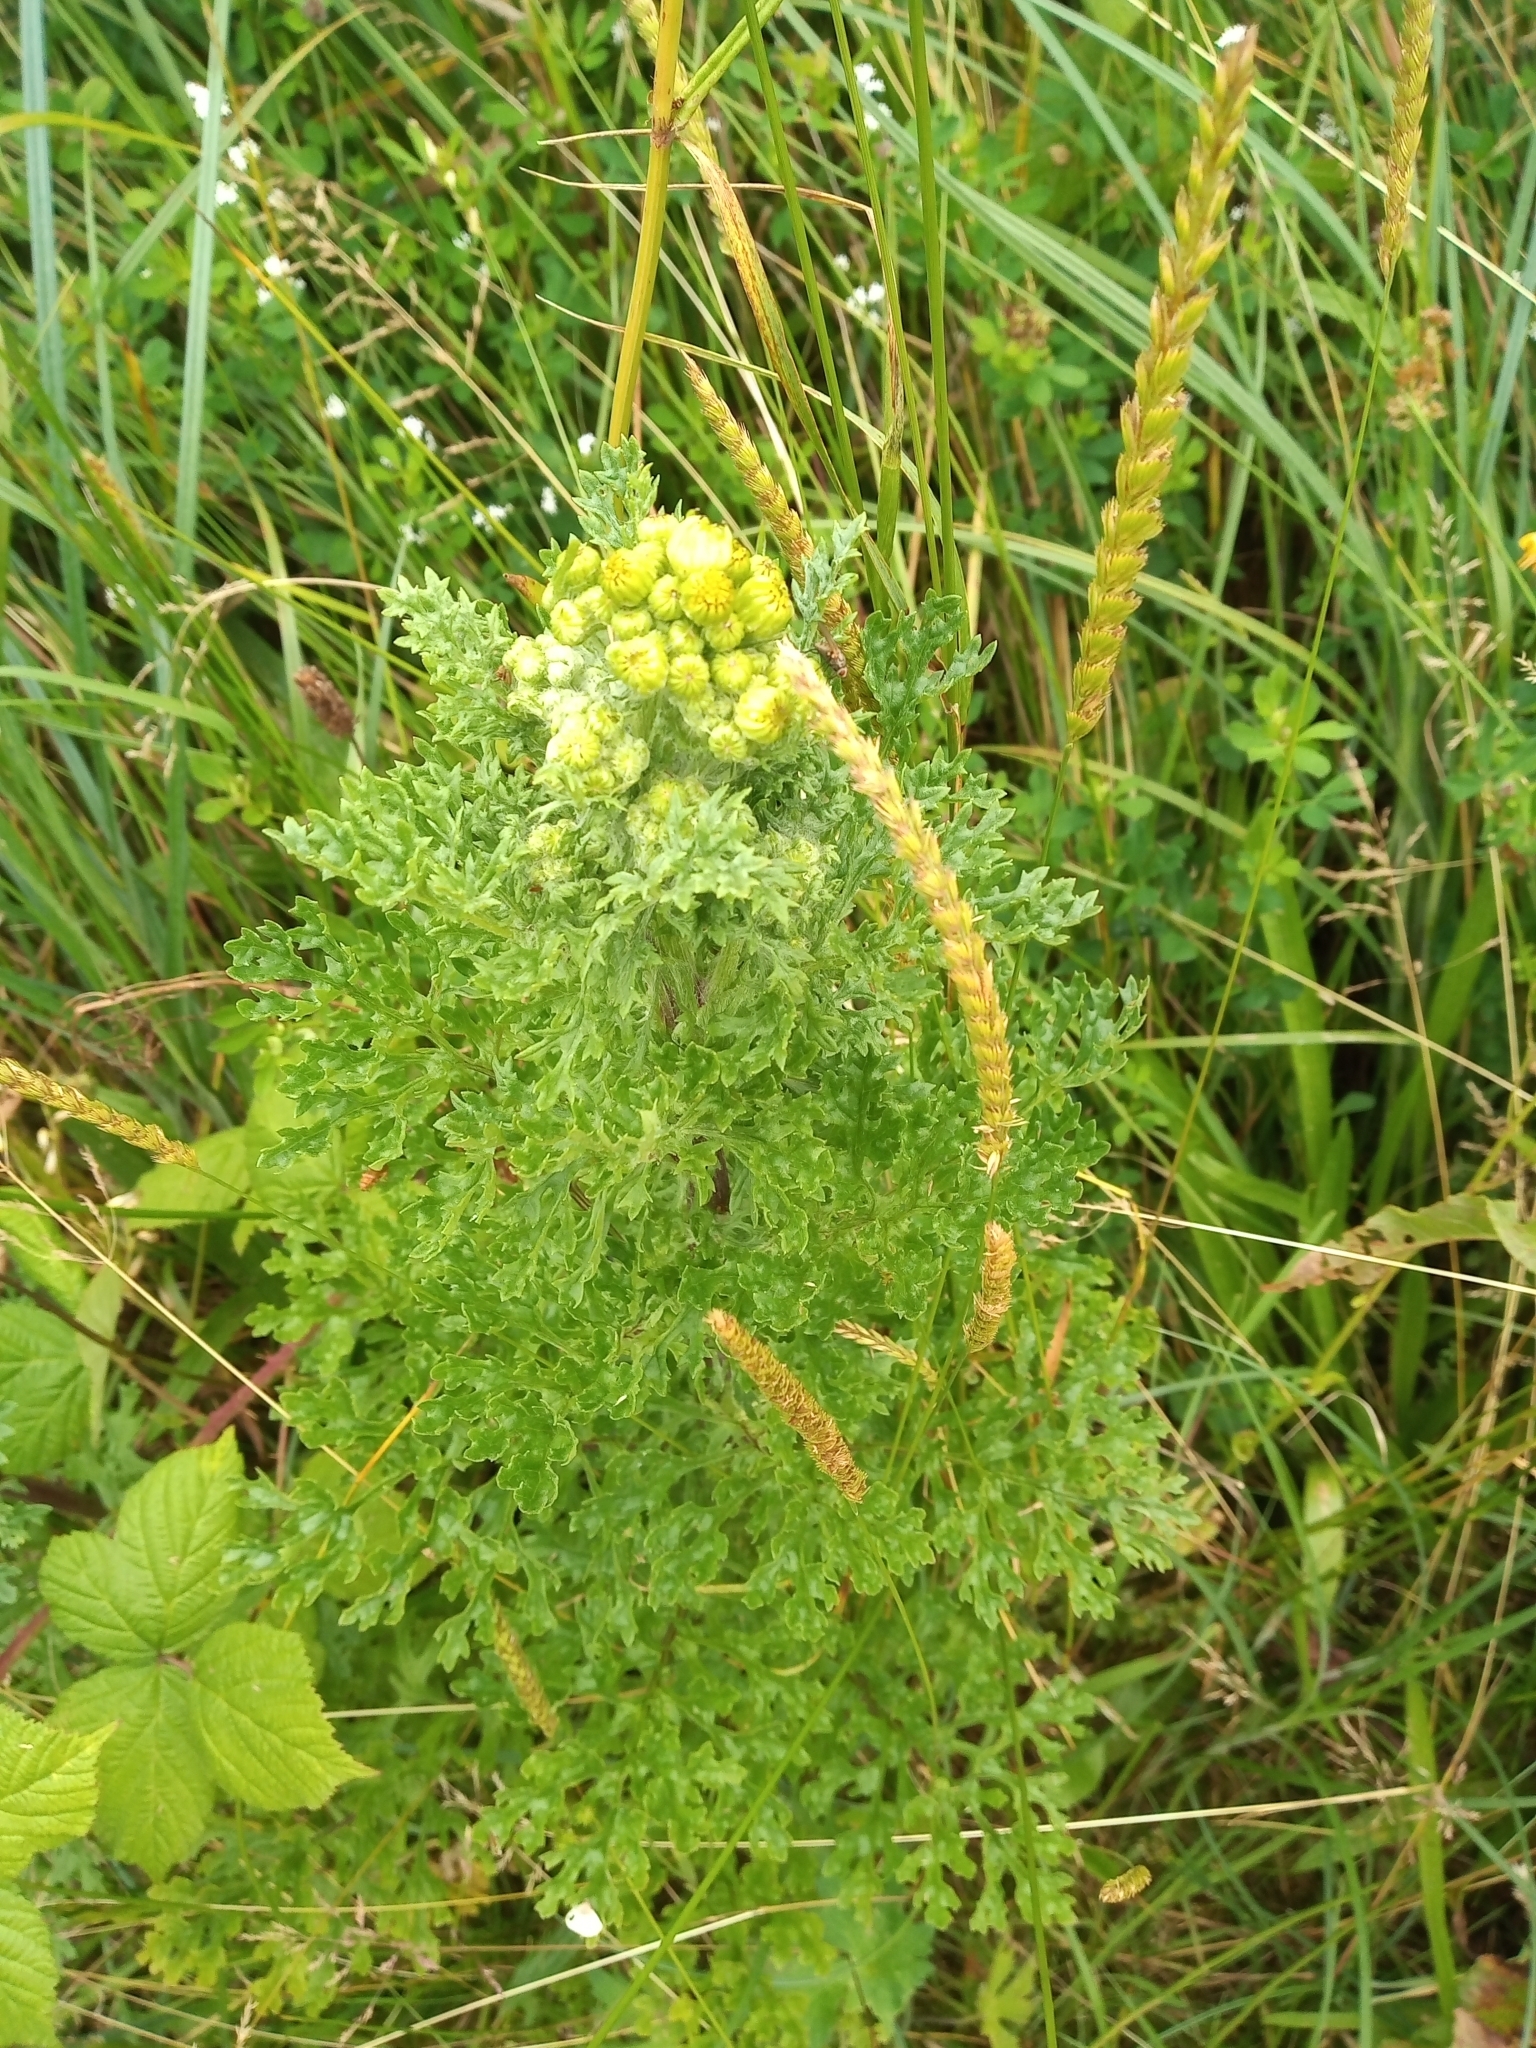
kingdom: Plantae
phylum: Tracheophyta
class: Magnoliopsida
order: Asterales
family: Asteraceae
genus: Jacobaea
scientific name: Jacobaea vulgaris
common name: Stinking willie
